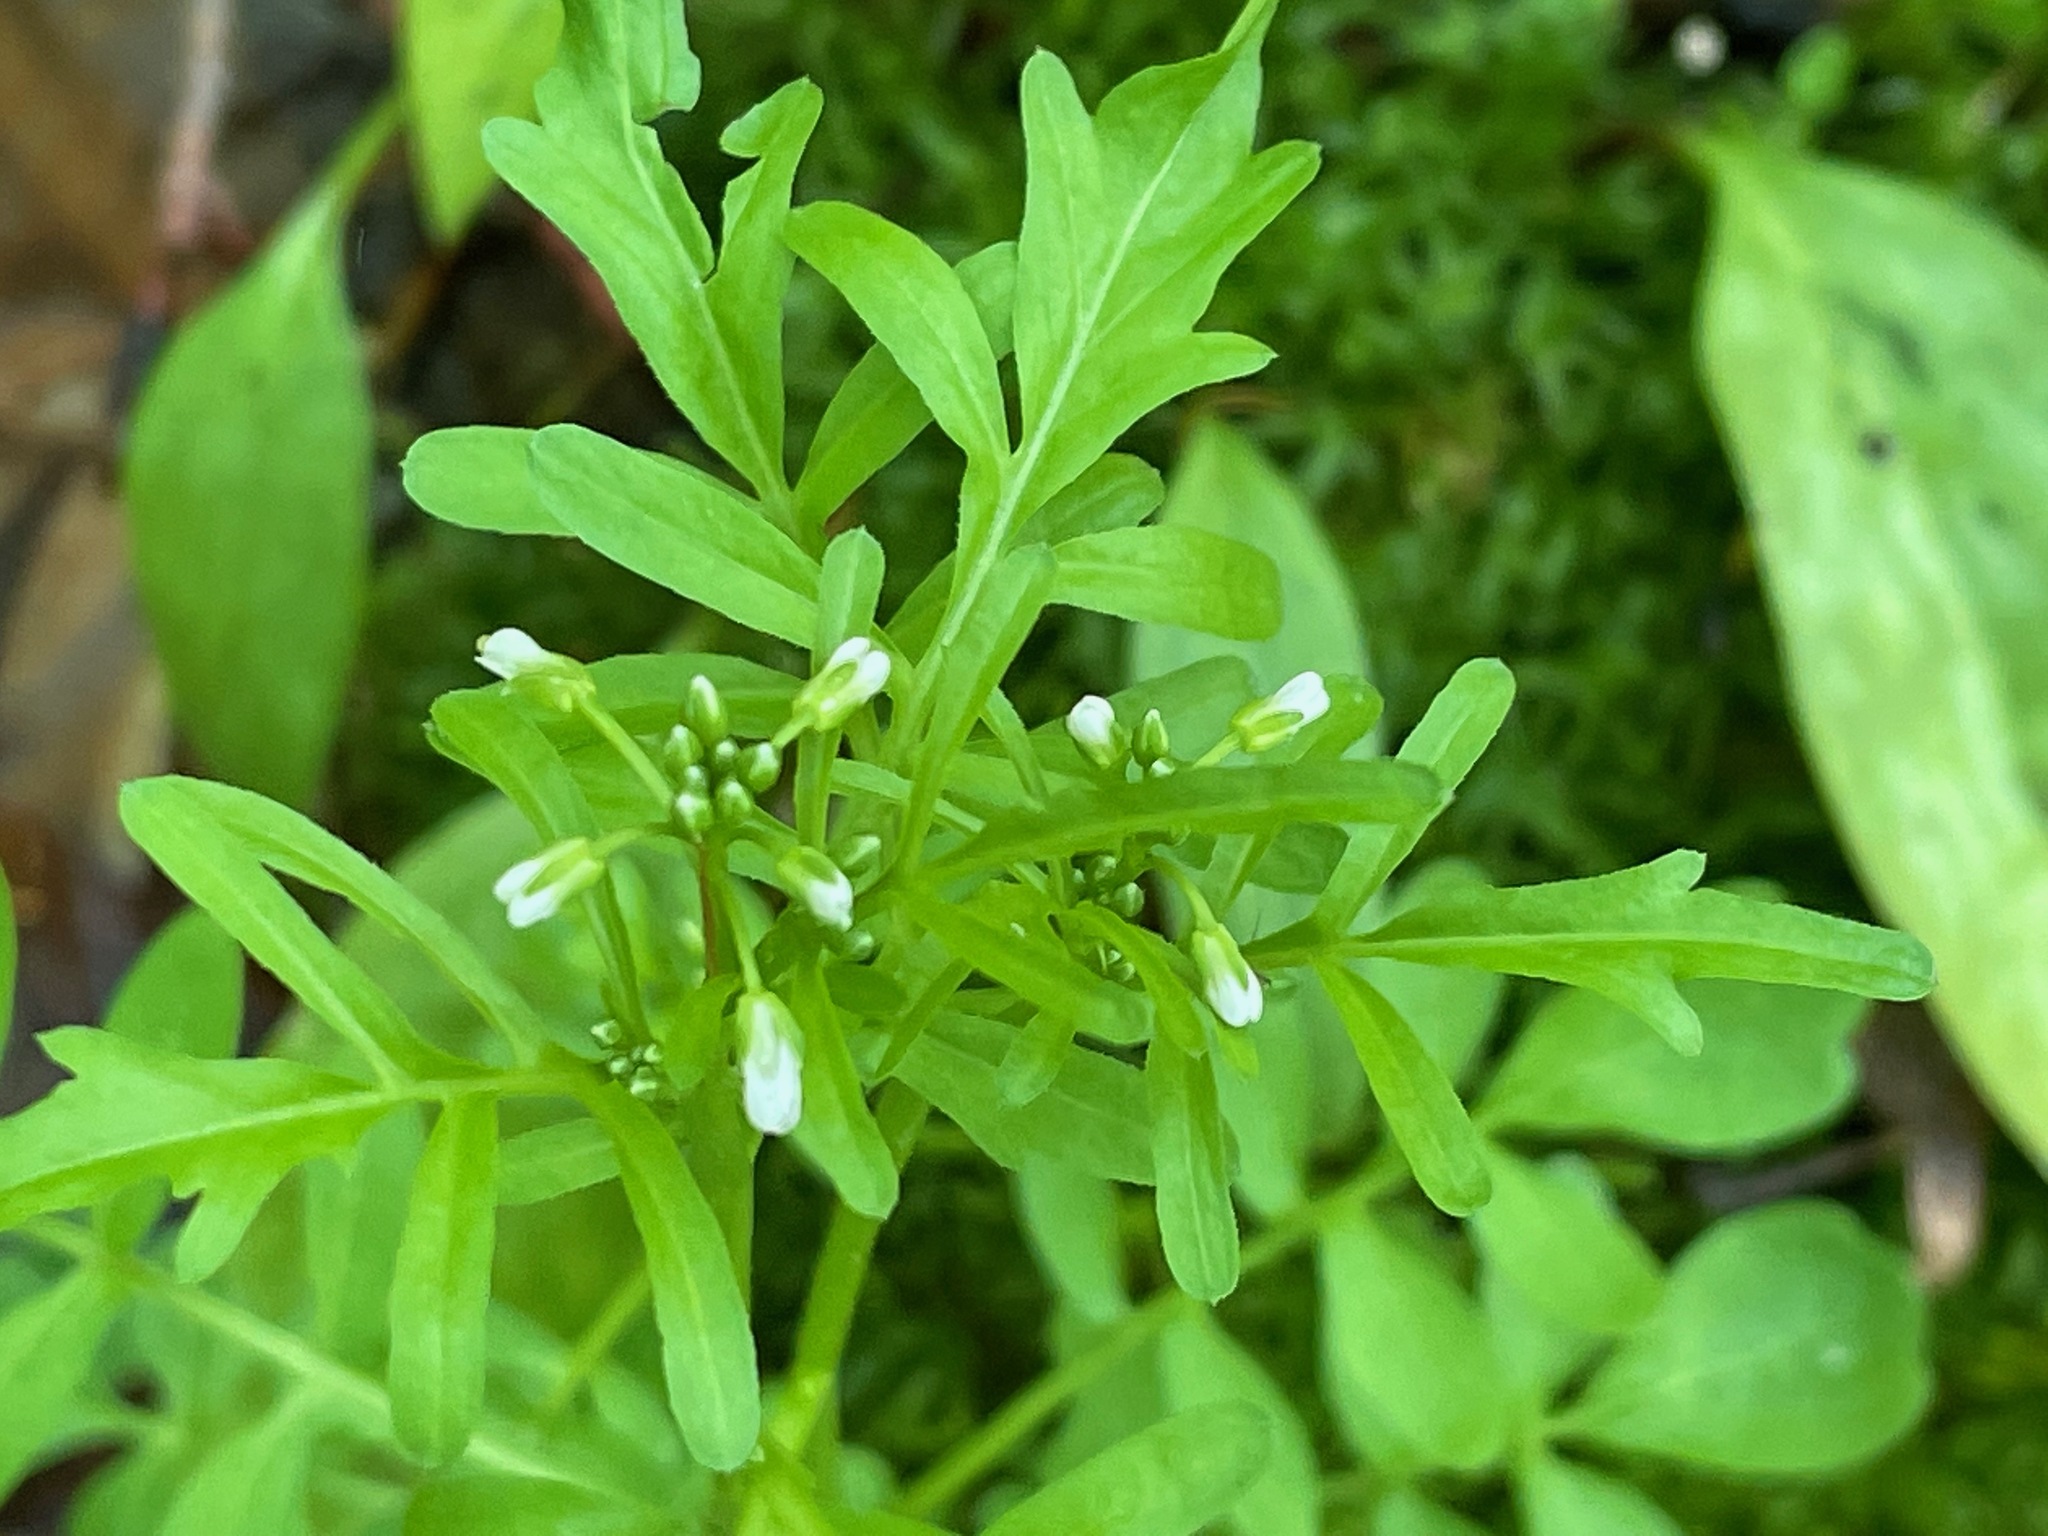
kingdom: Plantae
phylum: Tracheophyta
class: Magnoliopsida
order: Brassicales
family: Brassicaceae
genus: Cardamine
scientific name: Cardamine pensylvanica
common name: Pennsylvania bittercress
